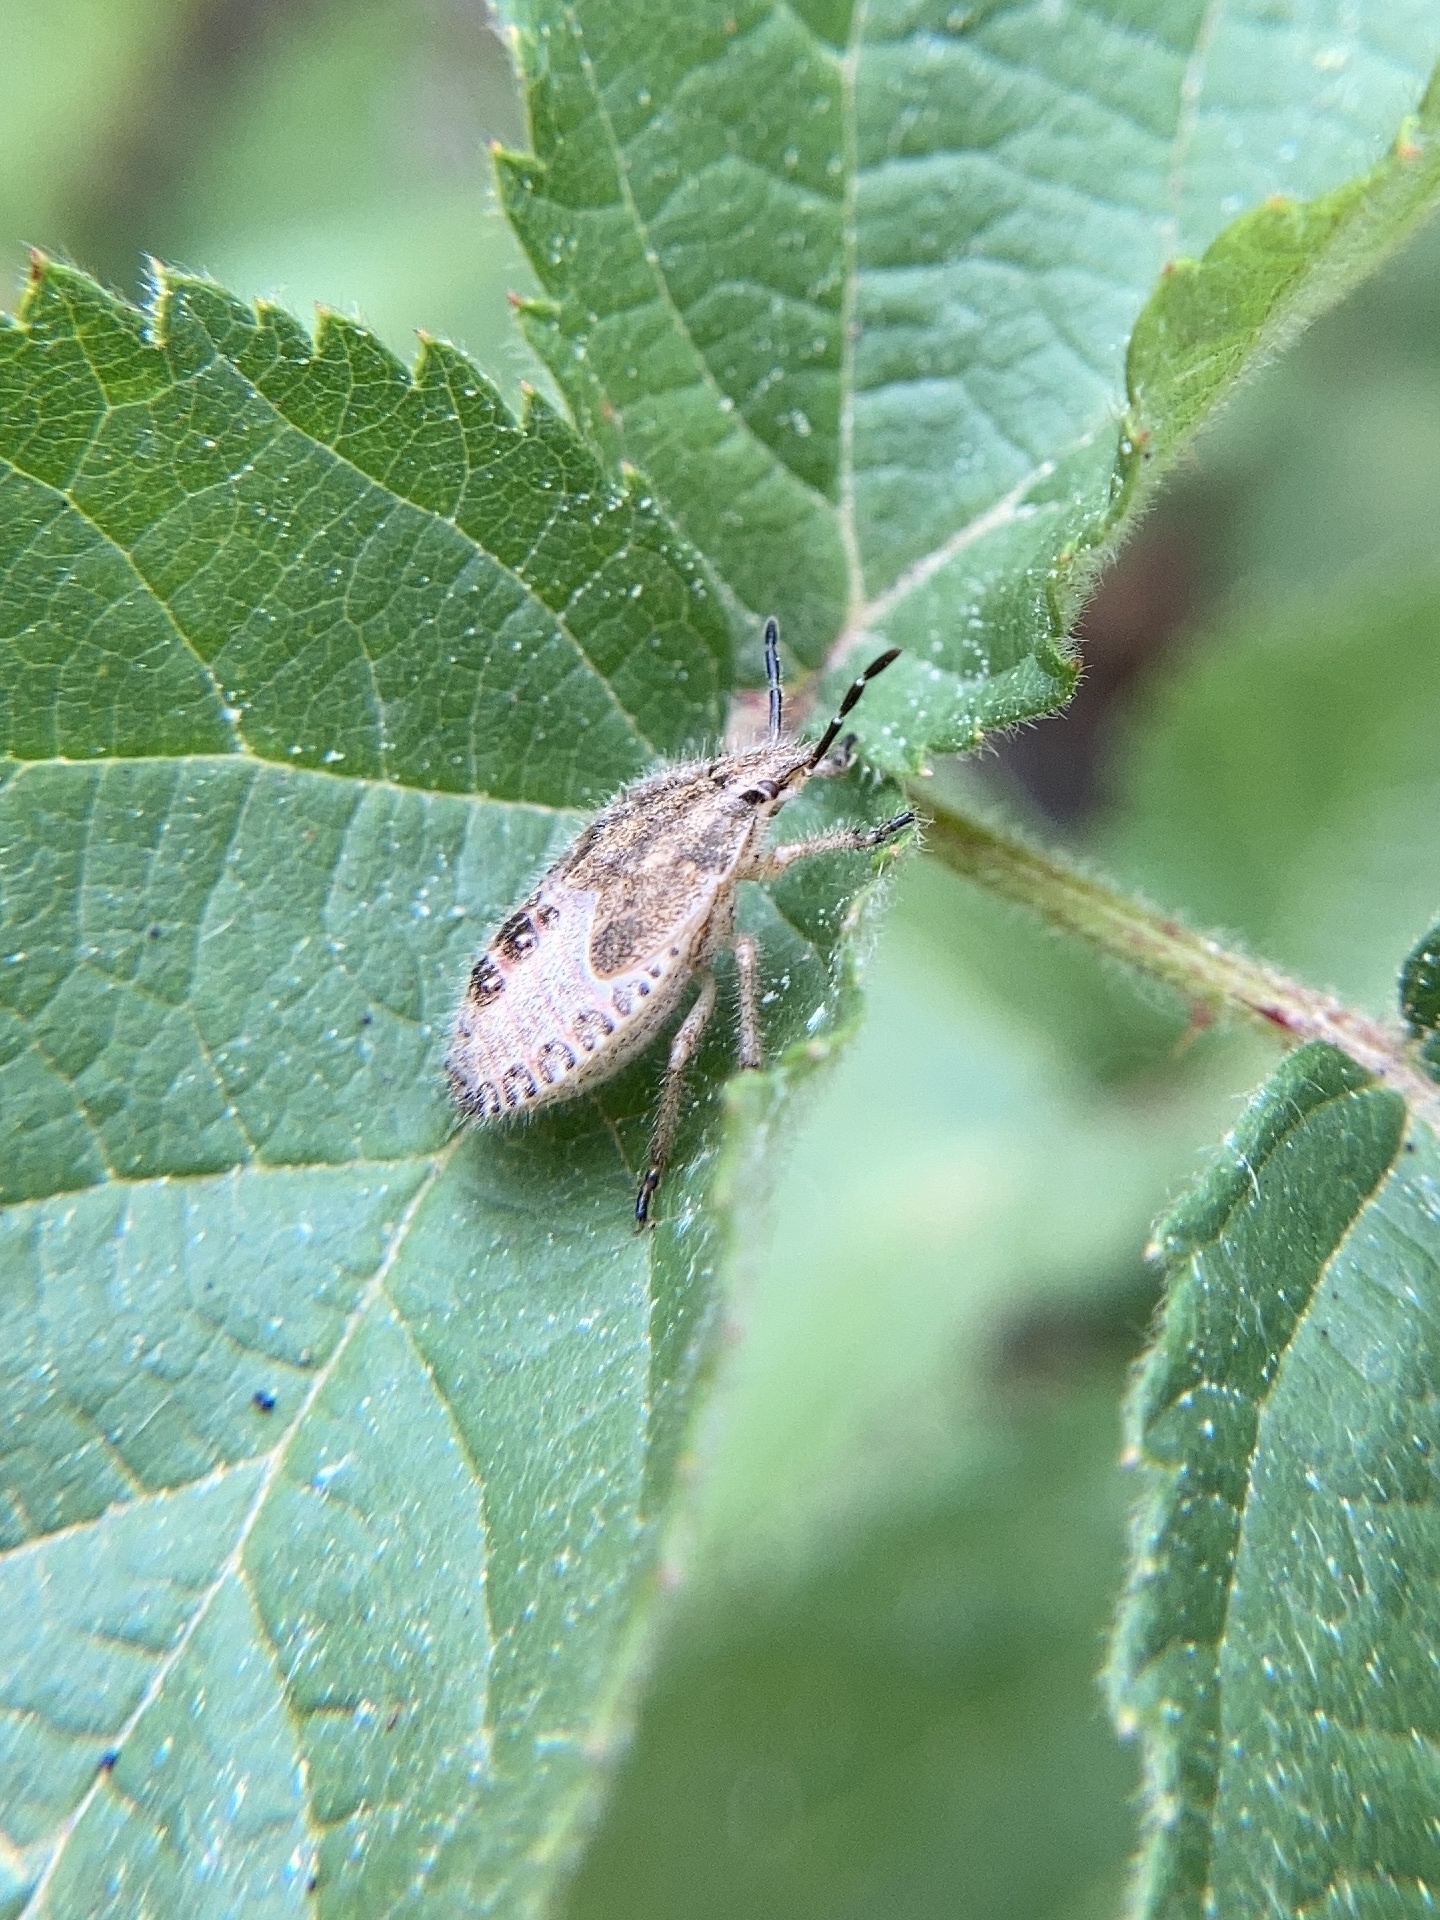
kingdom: Animalia
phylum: Arthropoda
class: Insecta
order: Hemiptera
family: Pentatomidae
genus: Dolycoris
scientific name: Dolycoris baccarum
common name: Sloe bug
